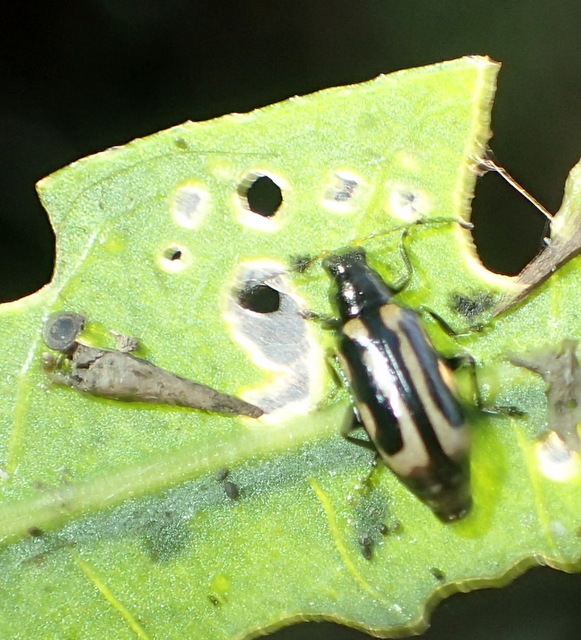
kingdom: Animalia
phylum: Arthropoda
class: Insecta
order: Coleoptera
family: Chrysomelidae
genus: Agasicles
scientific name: Agasicles hygrophila
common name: Alligatorweed flea beetle
